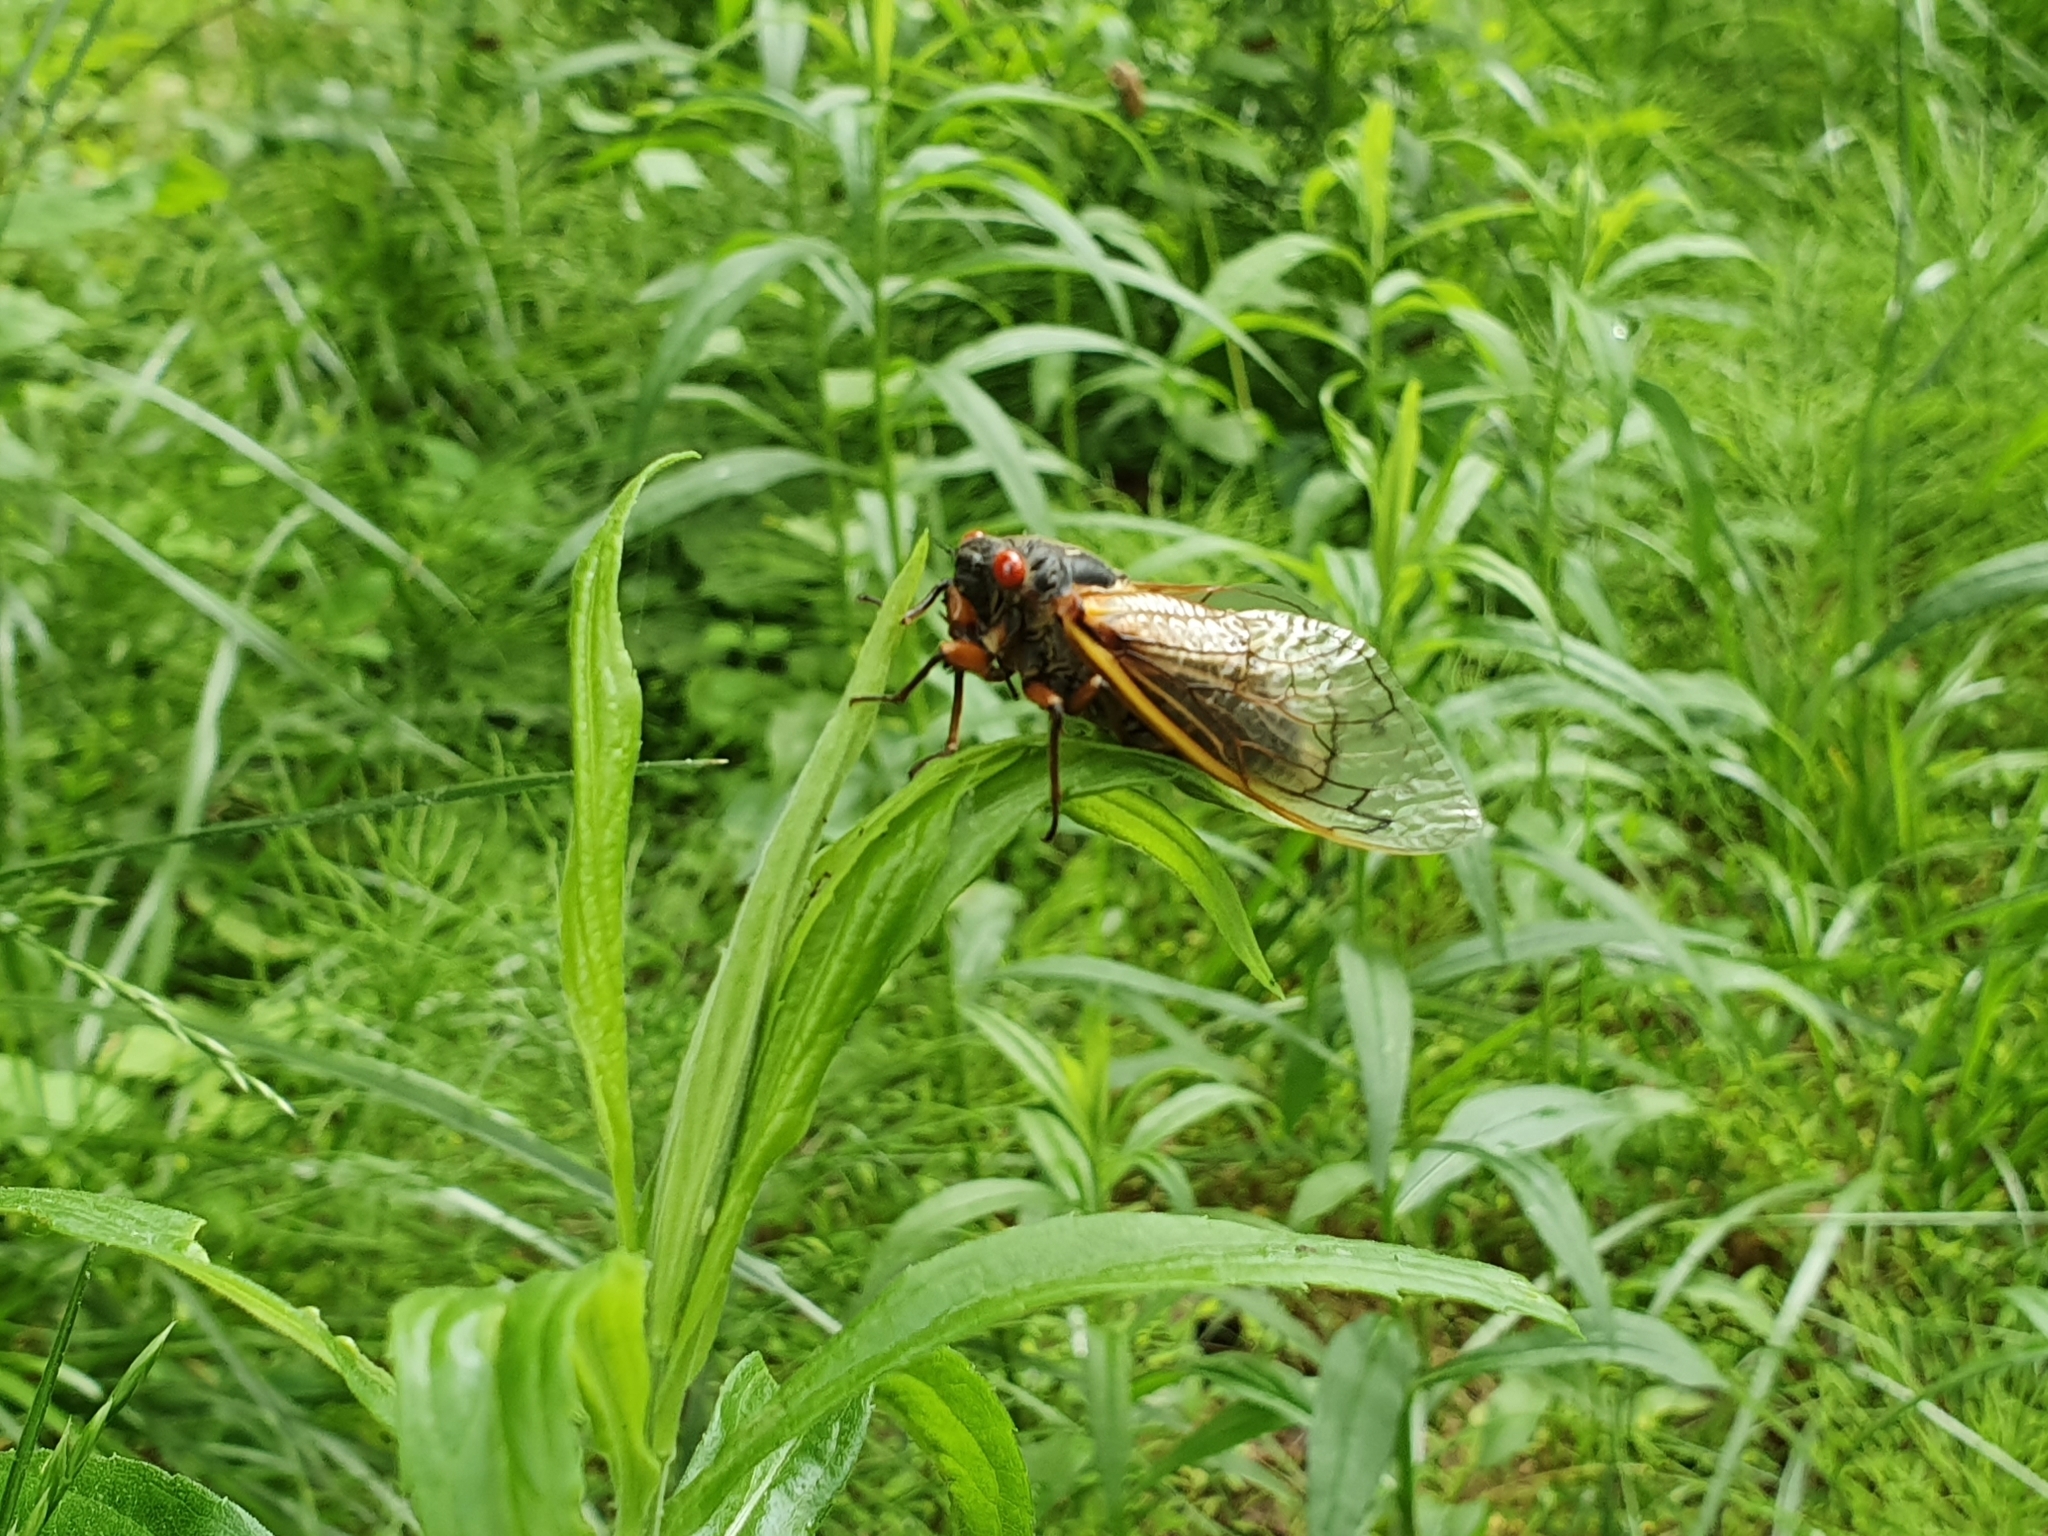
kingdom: Animalia
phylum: Arthropoda
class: Insecta
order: Hemiptera
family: Cicadidae
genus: Magicicada
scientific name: Magicicada septendecim
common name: Periodical cicada
